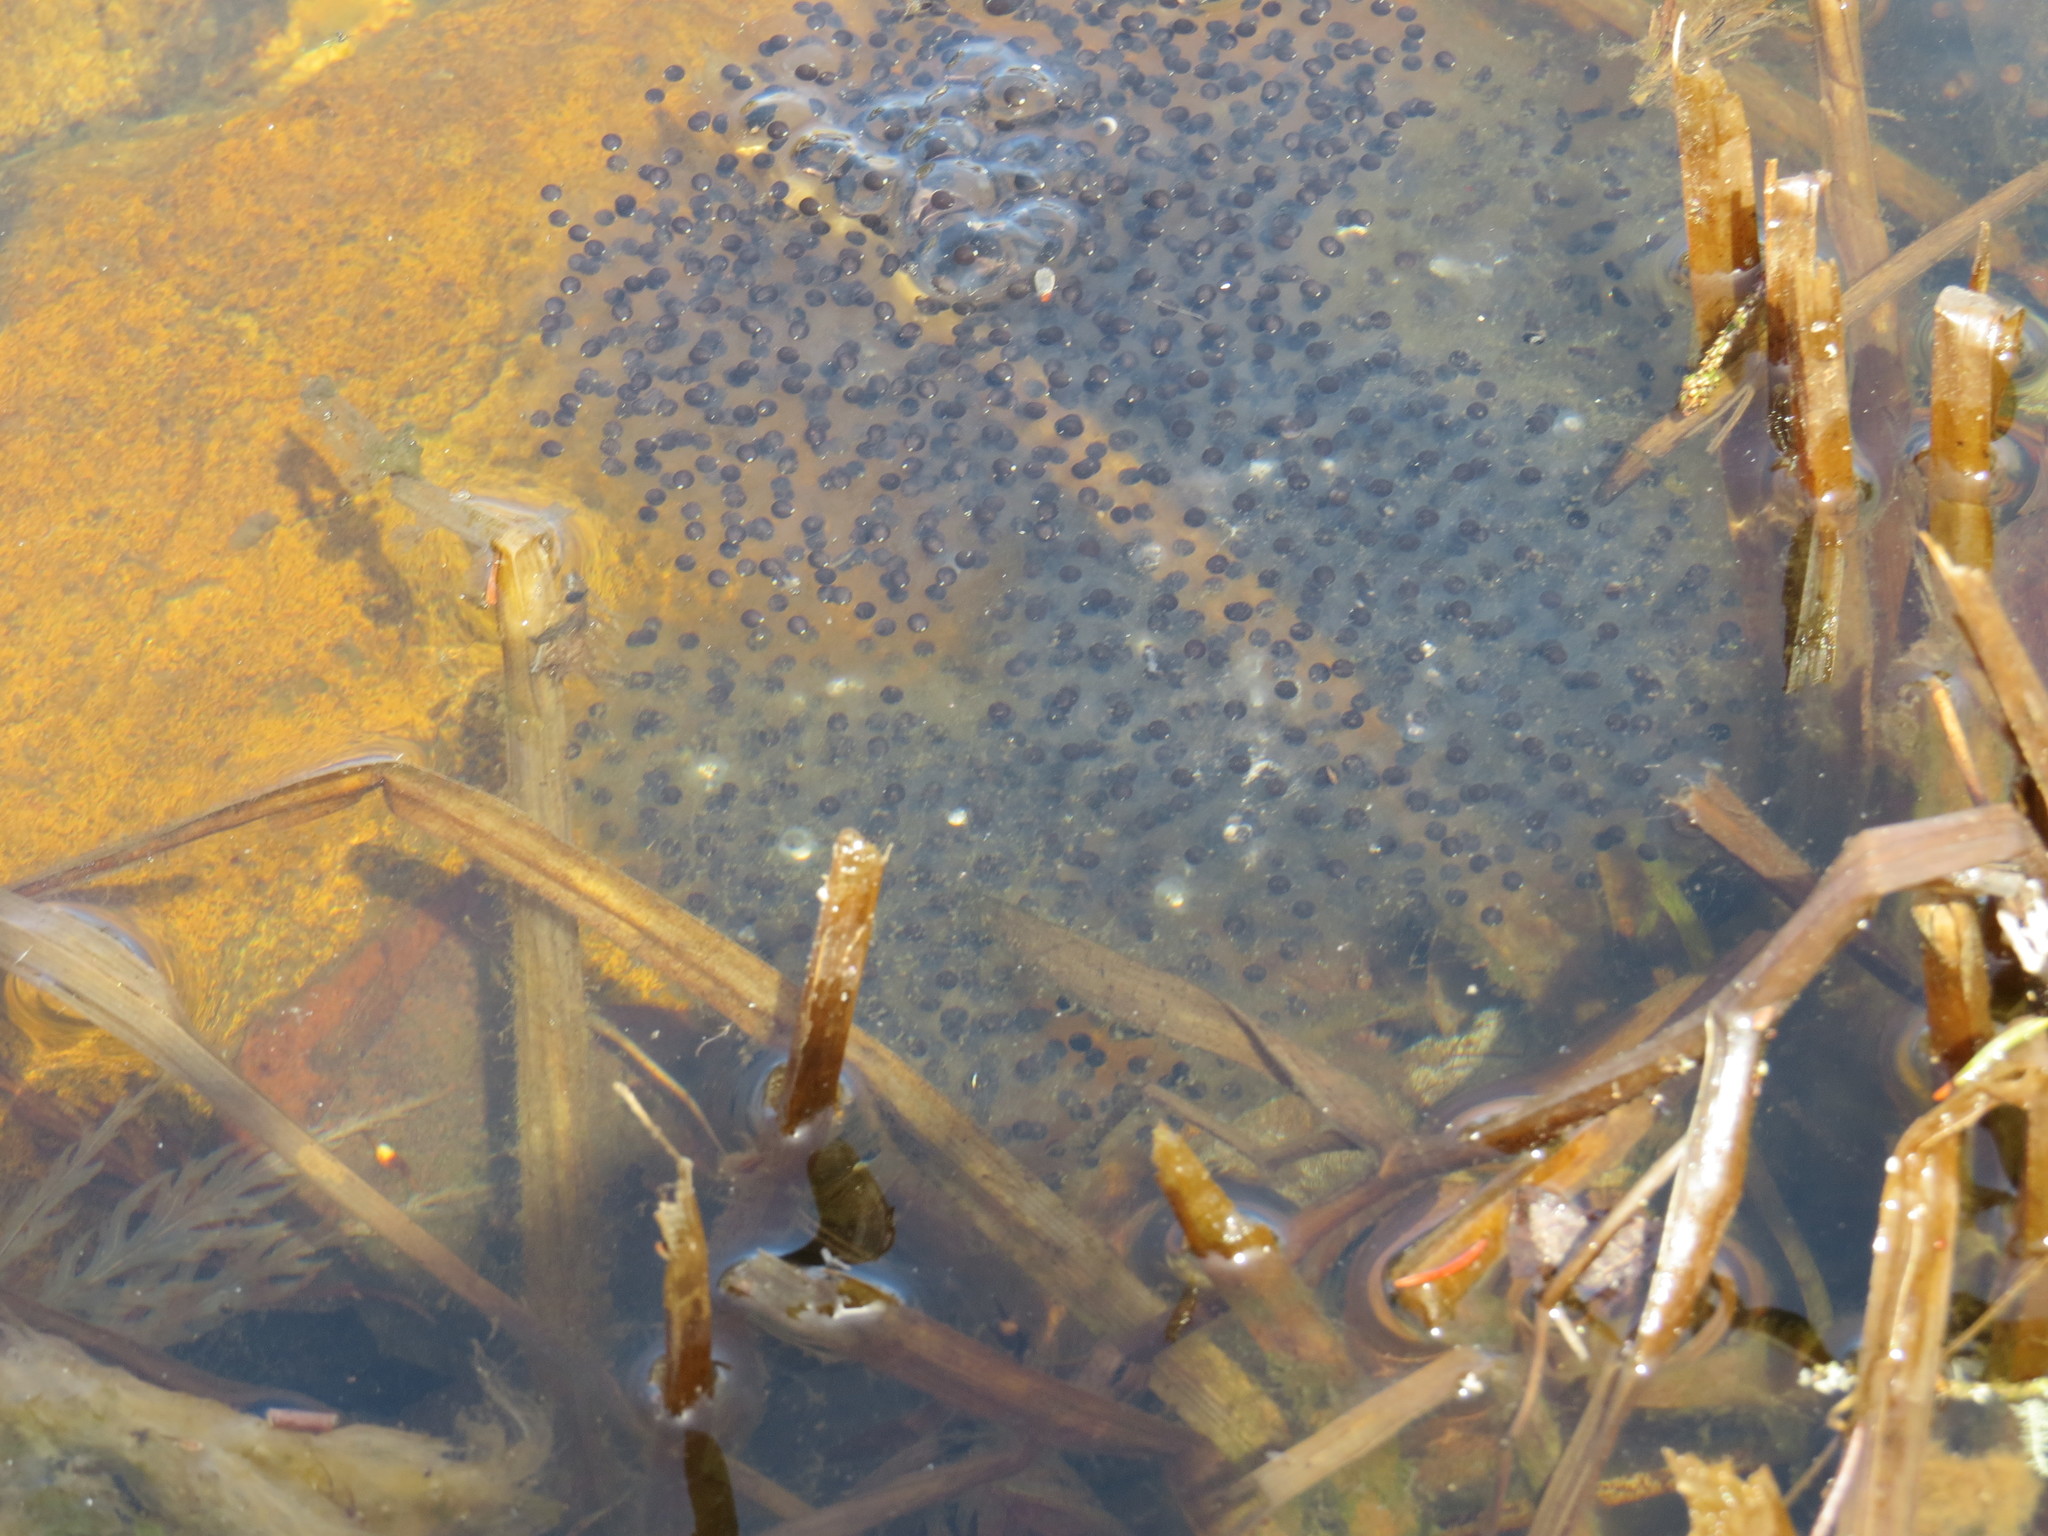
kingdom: Animalia
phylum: Chordata
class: Amphibia
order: Anura
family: Ranidae
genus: Lithobates
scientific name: Lithobates sylvaticus
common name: Wood frog
